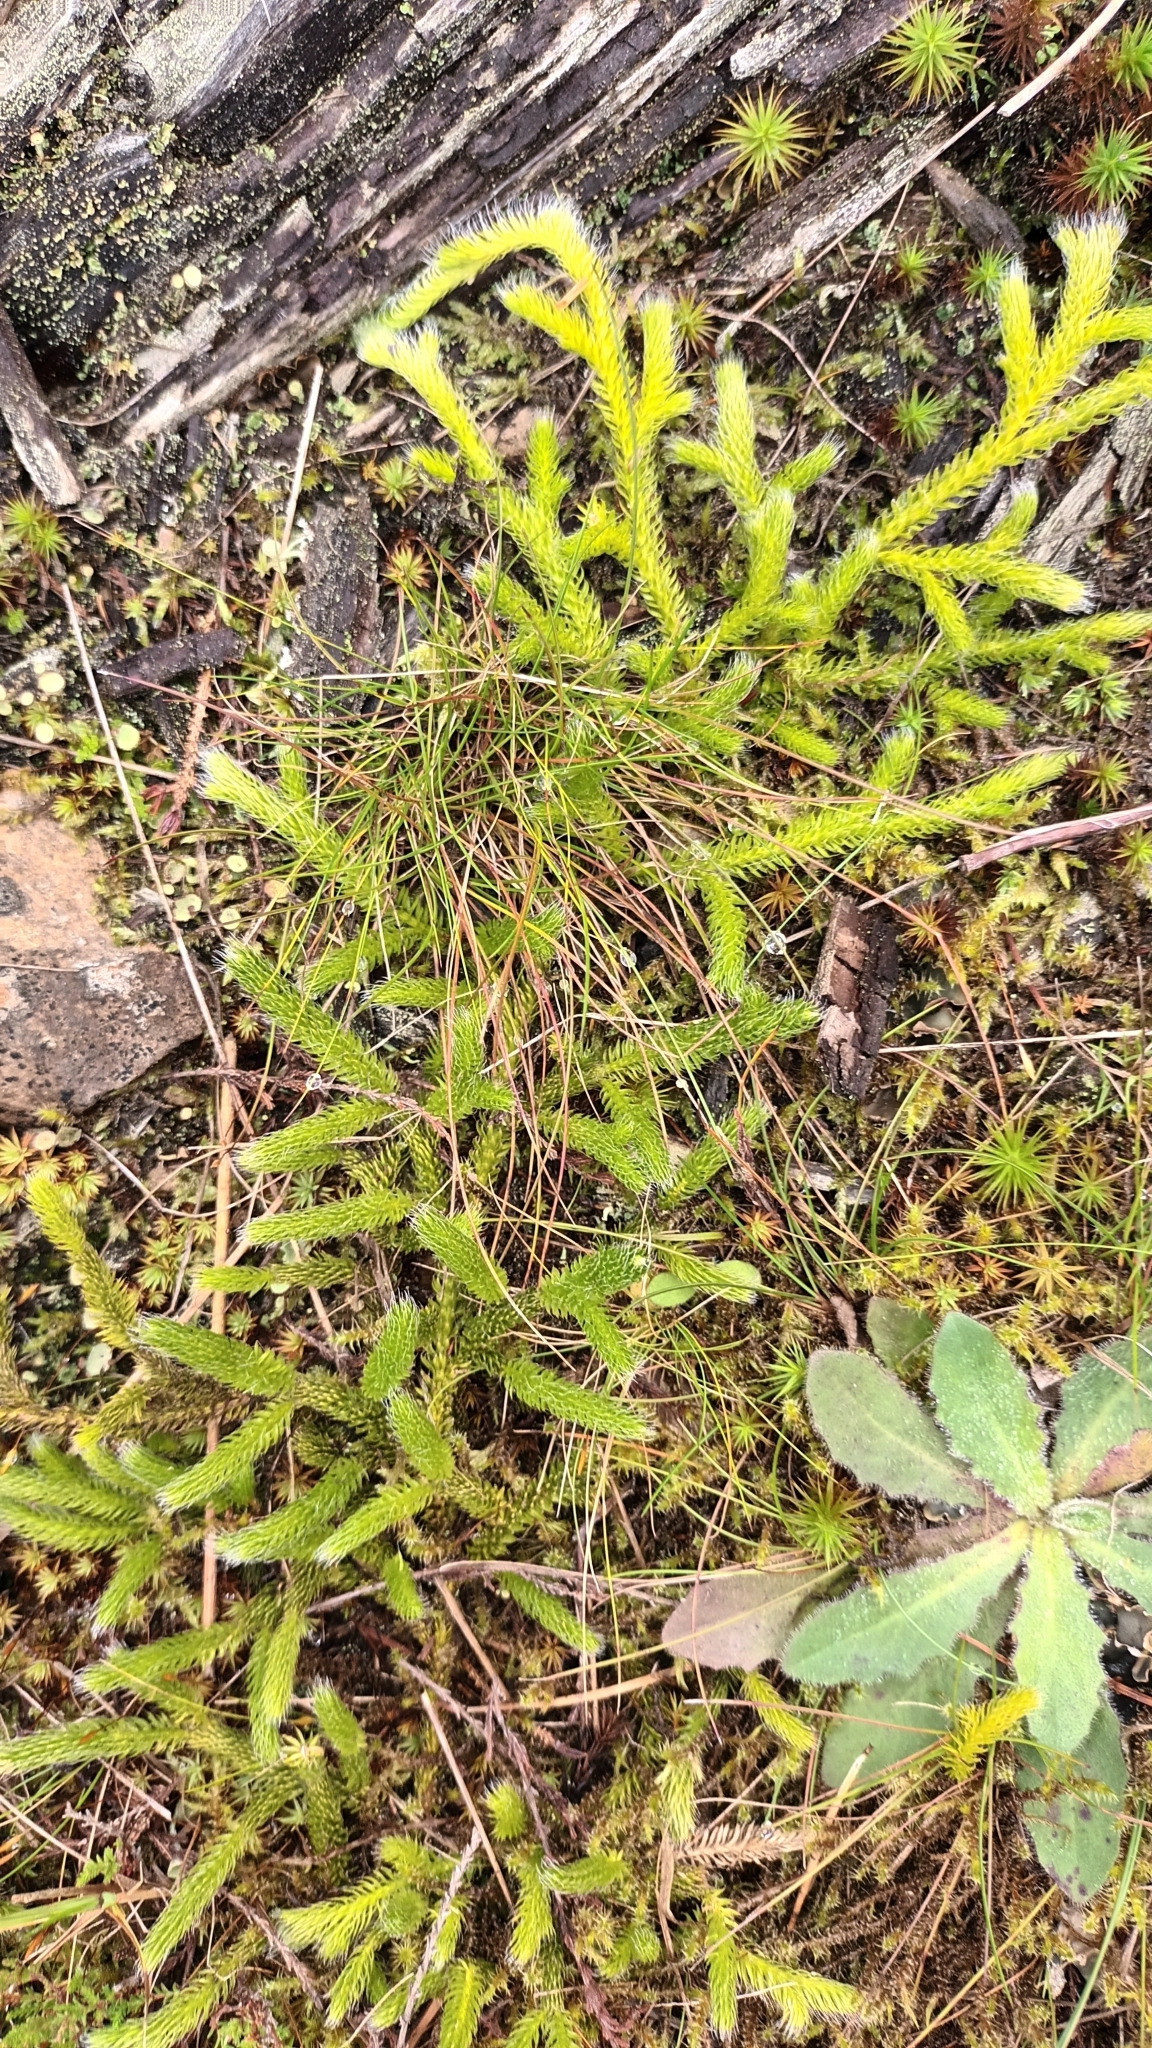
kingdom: Plantae
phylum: Tracheophyta
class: Lycopodiopsida
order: Lycopodiales
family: Lycopodiaceae
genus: Lycopodium
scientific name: Lycopodium clavatum
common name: Stag's-horn clubmoss
